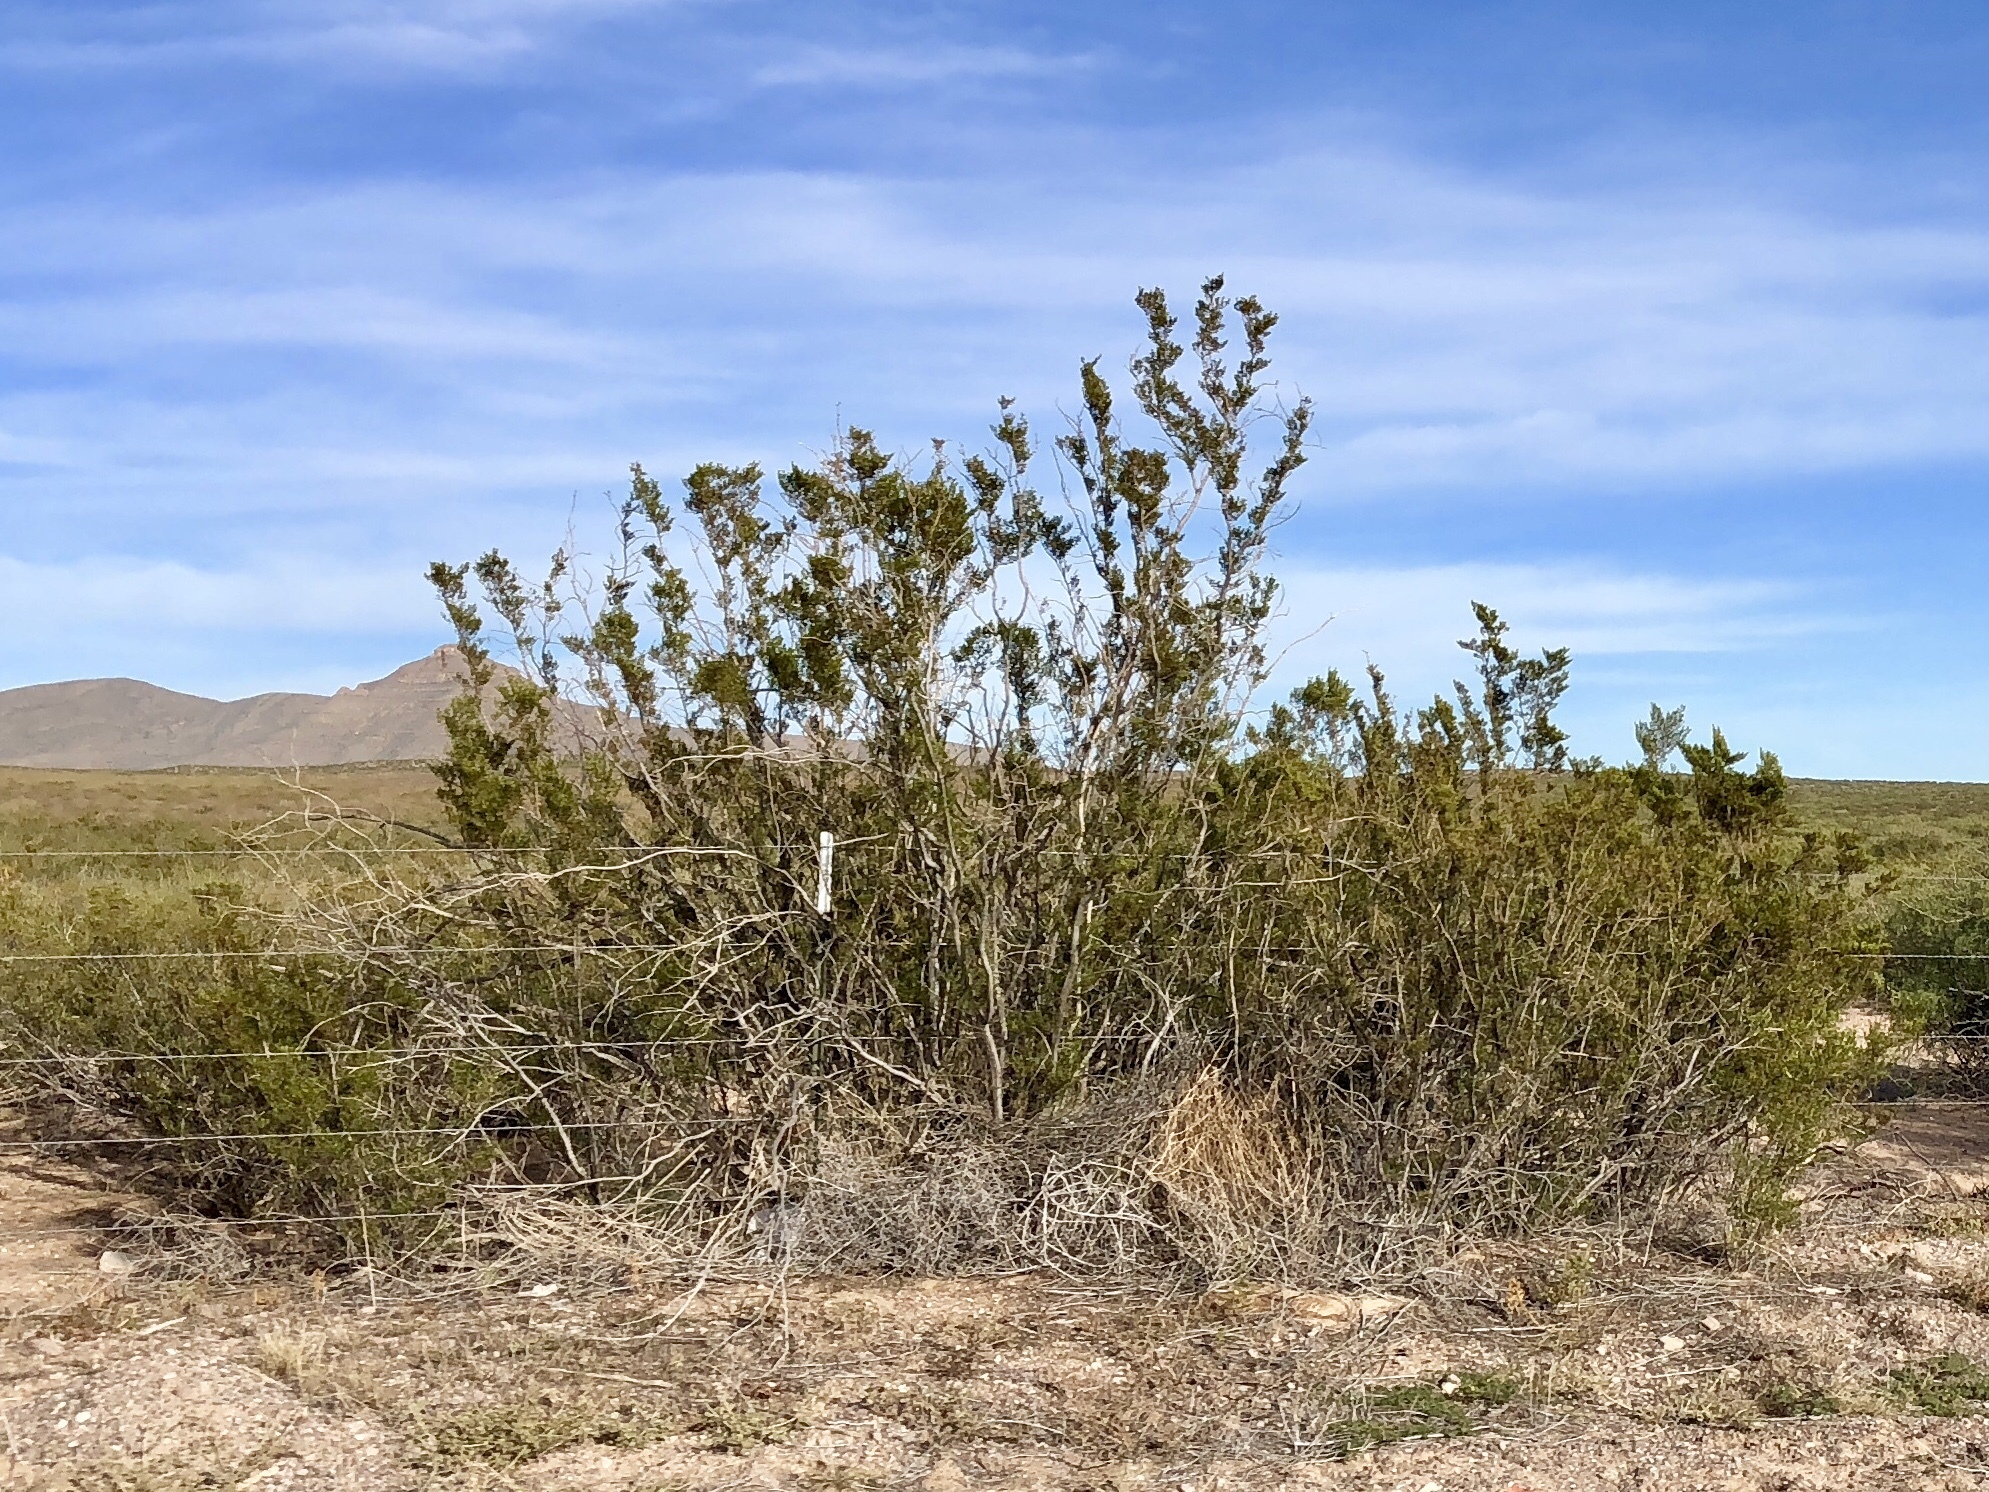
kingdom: Plantae
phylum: Tracheophyta
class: Magnoliopsida
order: Zygophyllales
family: Zygophyllaceae
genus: Larrea
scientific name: Larrea tridentata
